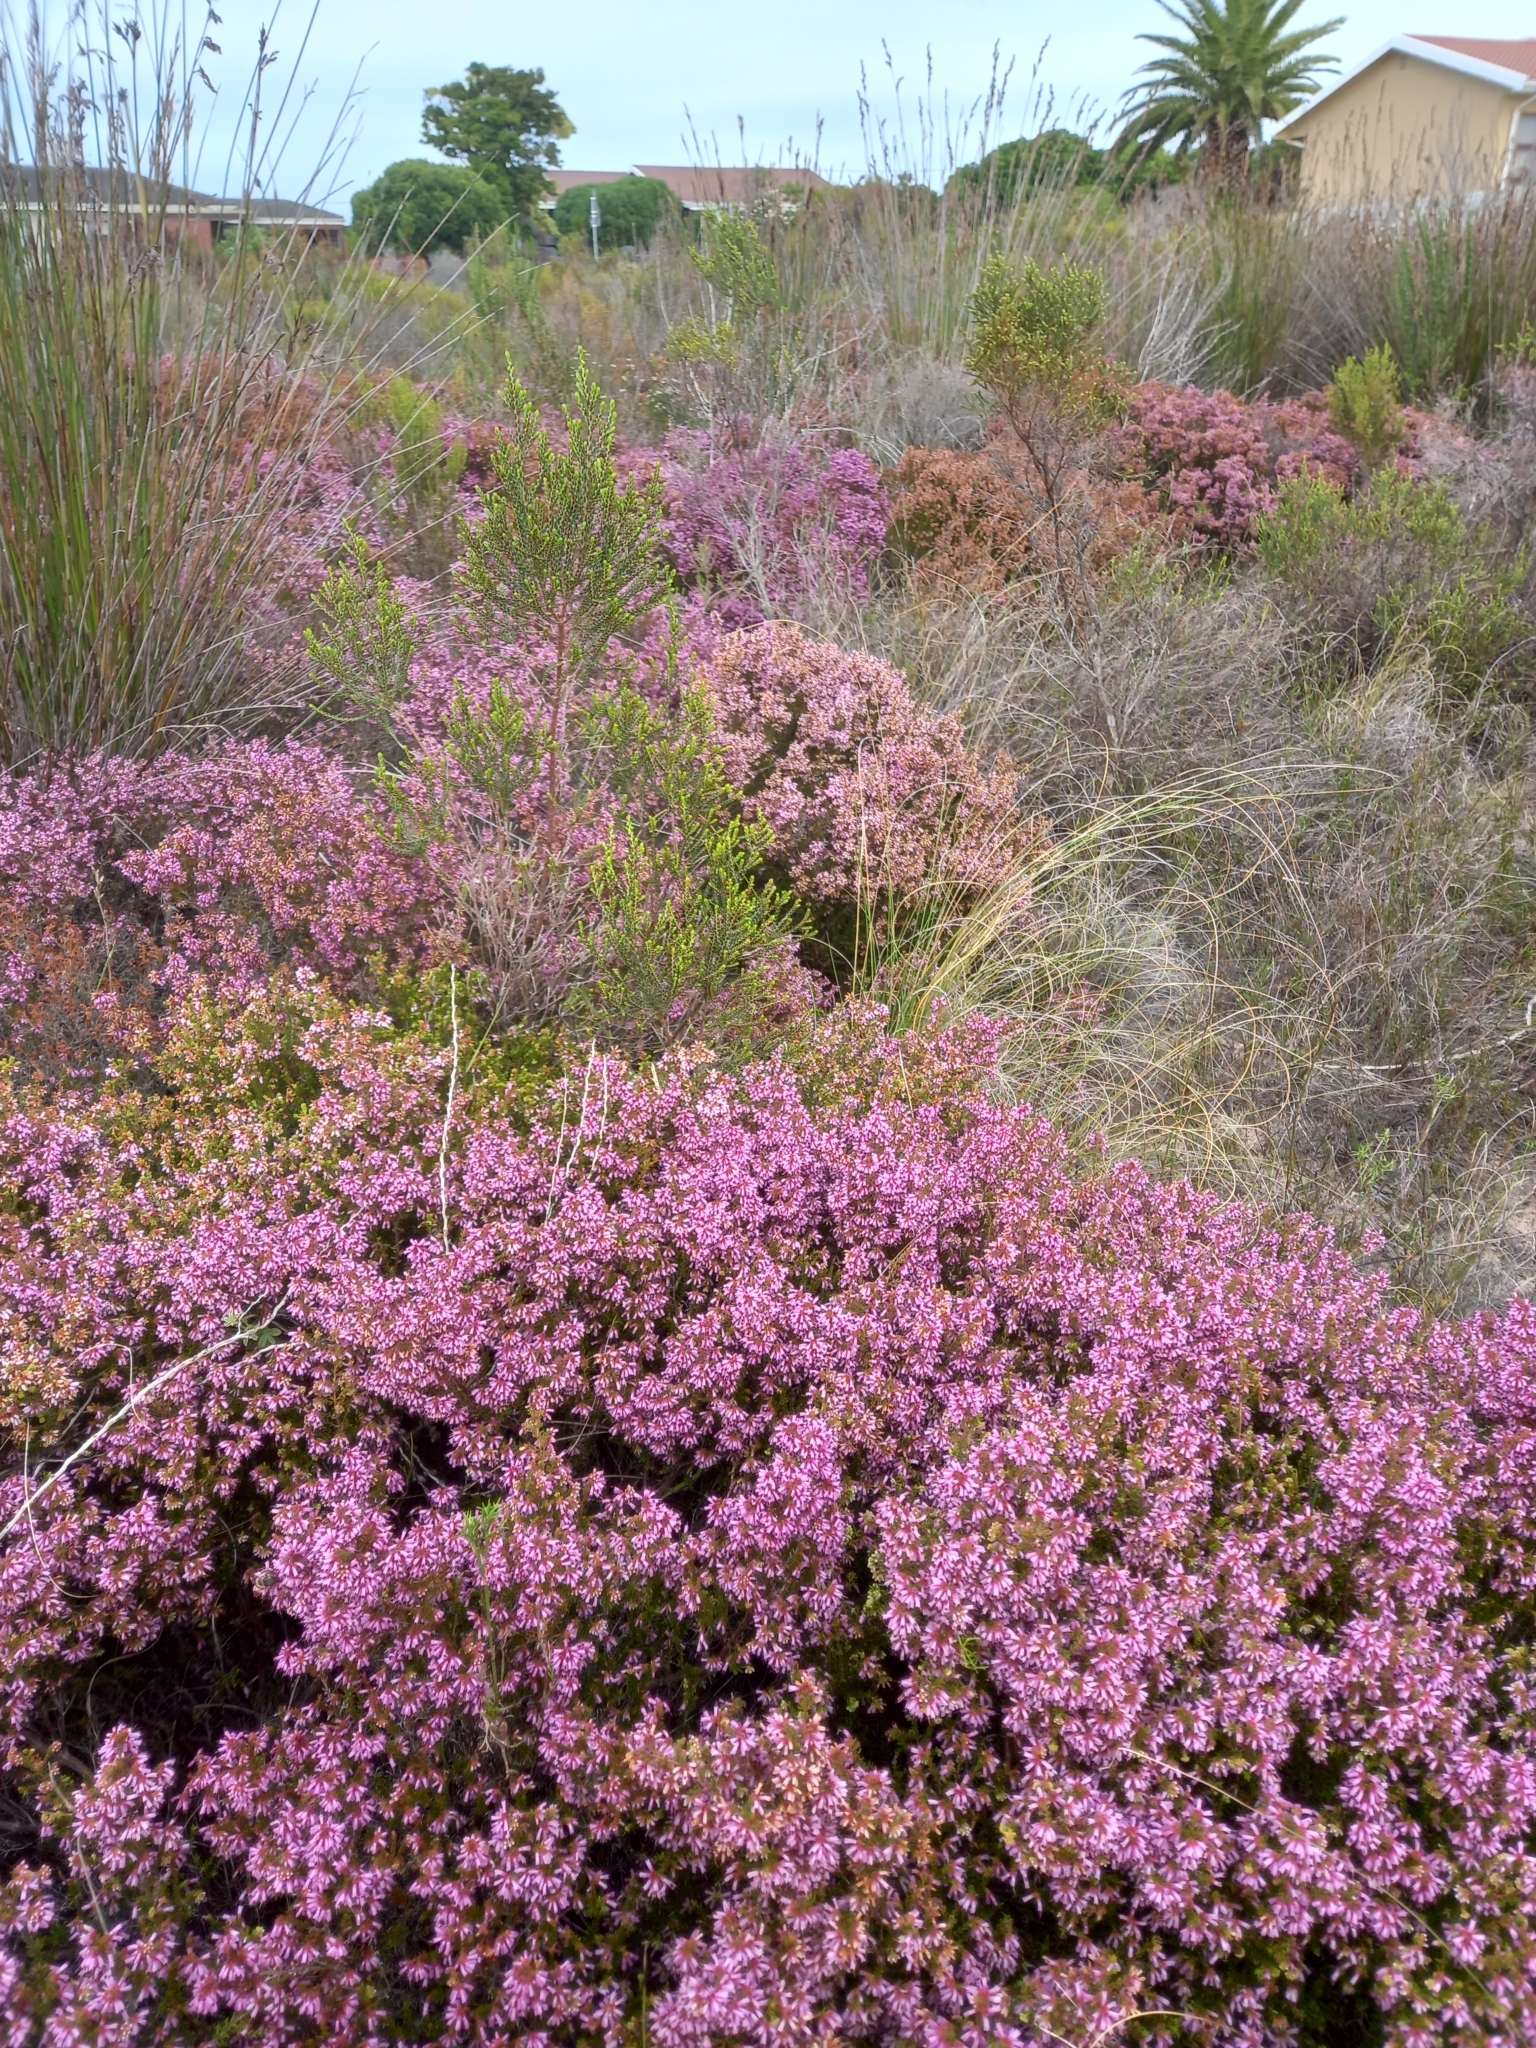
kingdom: Plantae
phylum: Tracheophyta
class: Magnoliopsida
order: Ericales
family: Ericaceae
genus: Erica
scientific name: Erica dispar
